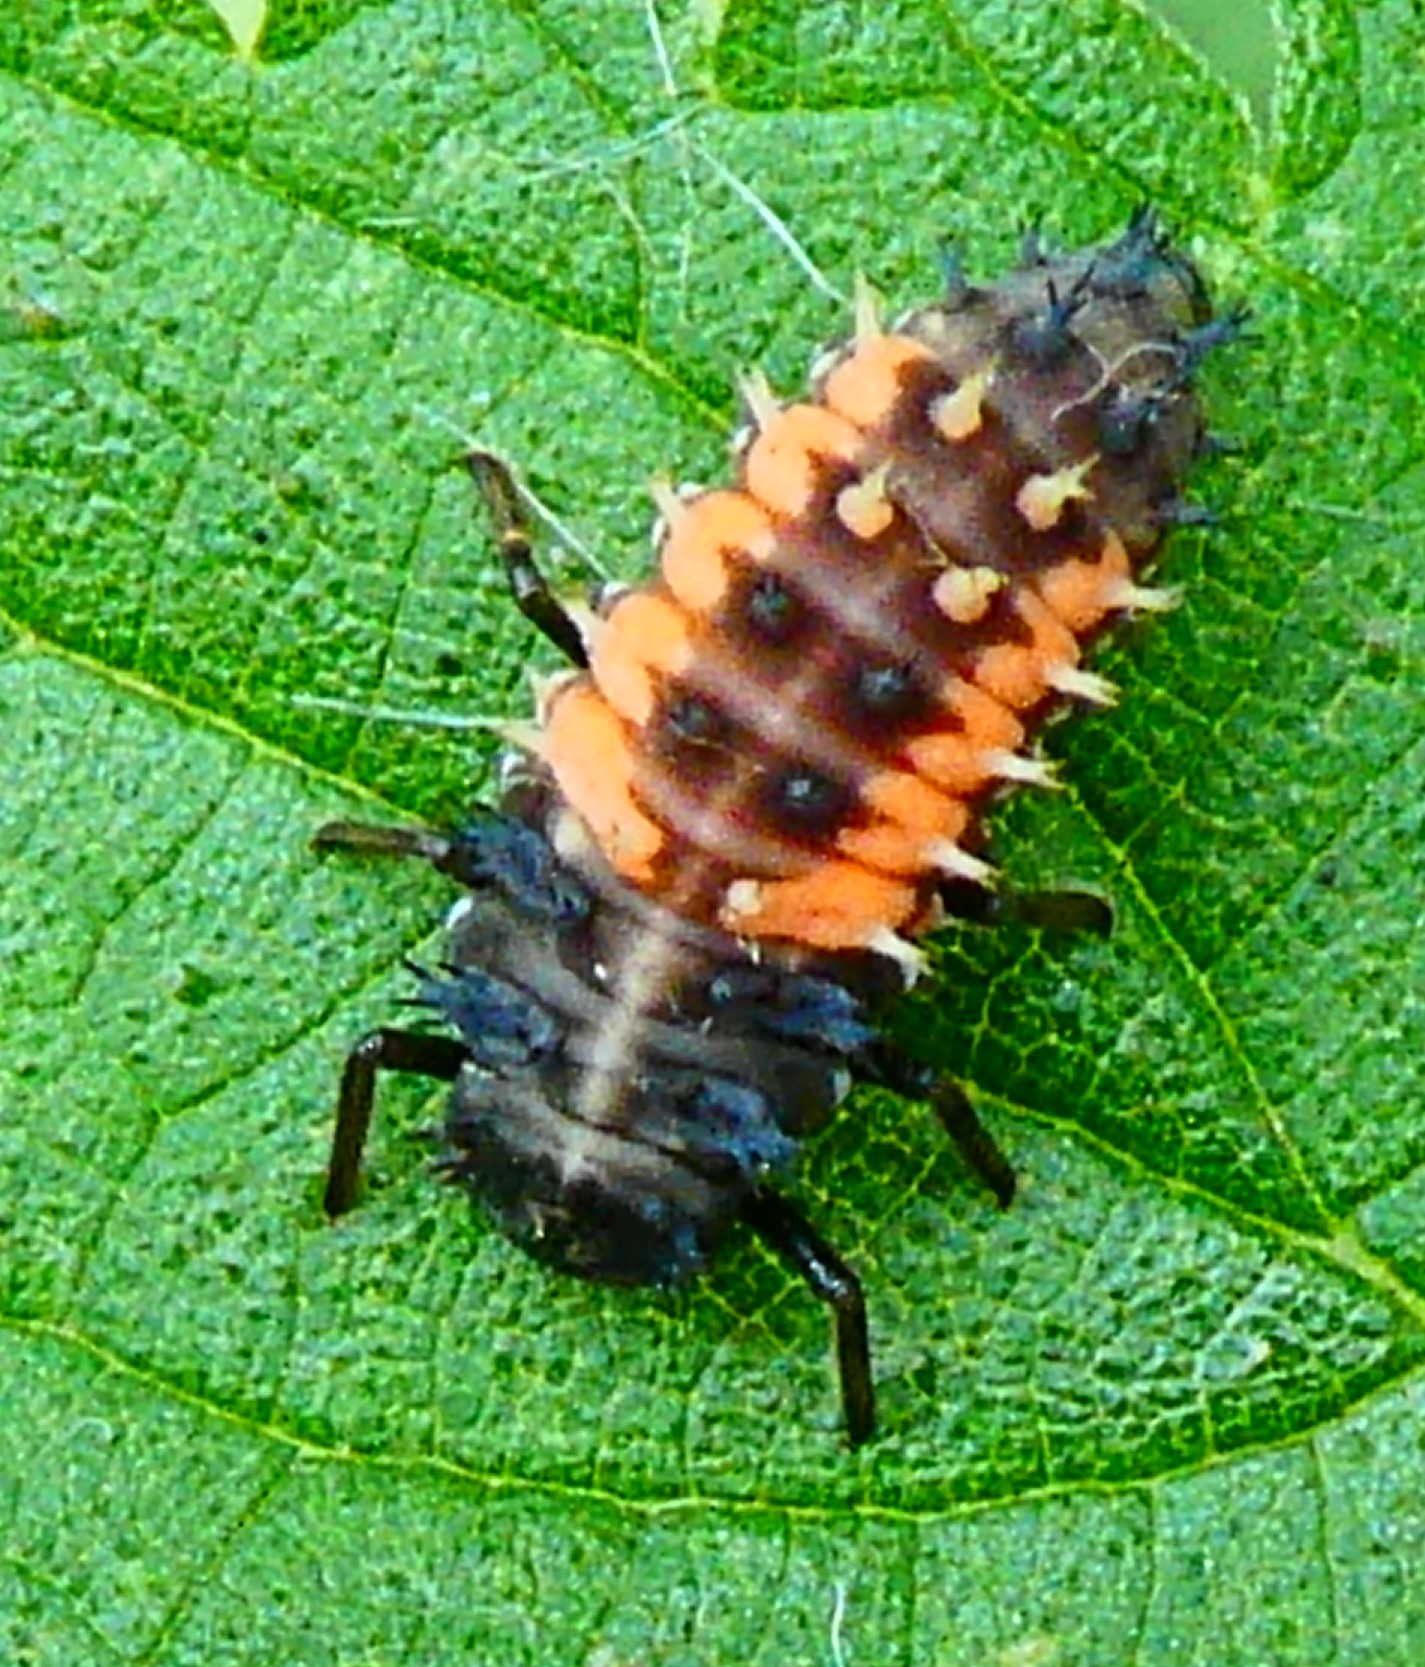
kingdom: Animalia
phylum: Arthropoda
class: Insecta
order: Coleoptera
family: Coccinellidae
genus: Harmonia
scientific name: Harmonia axyridis
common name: Harlequin ladybird
